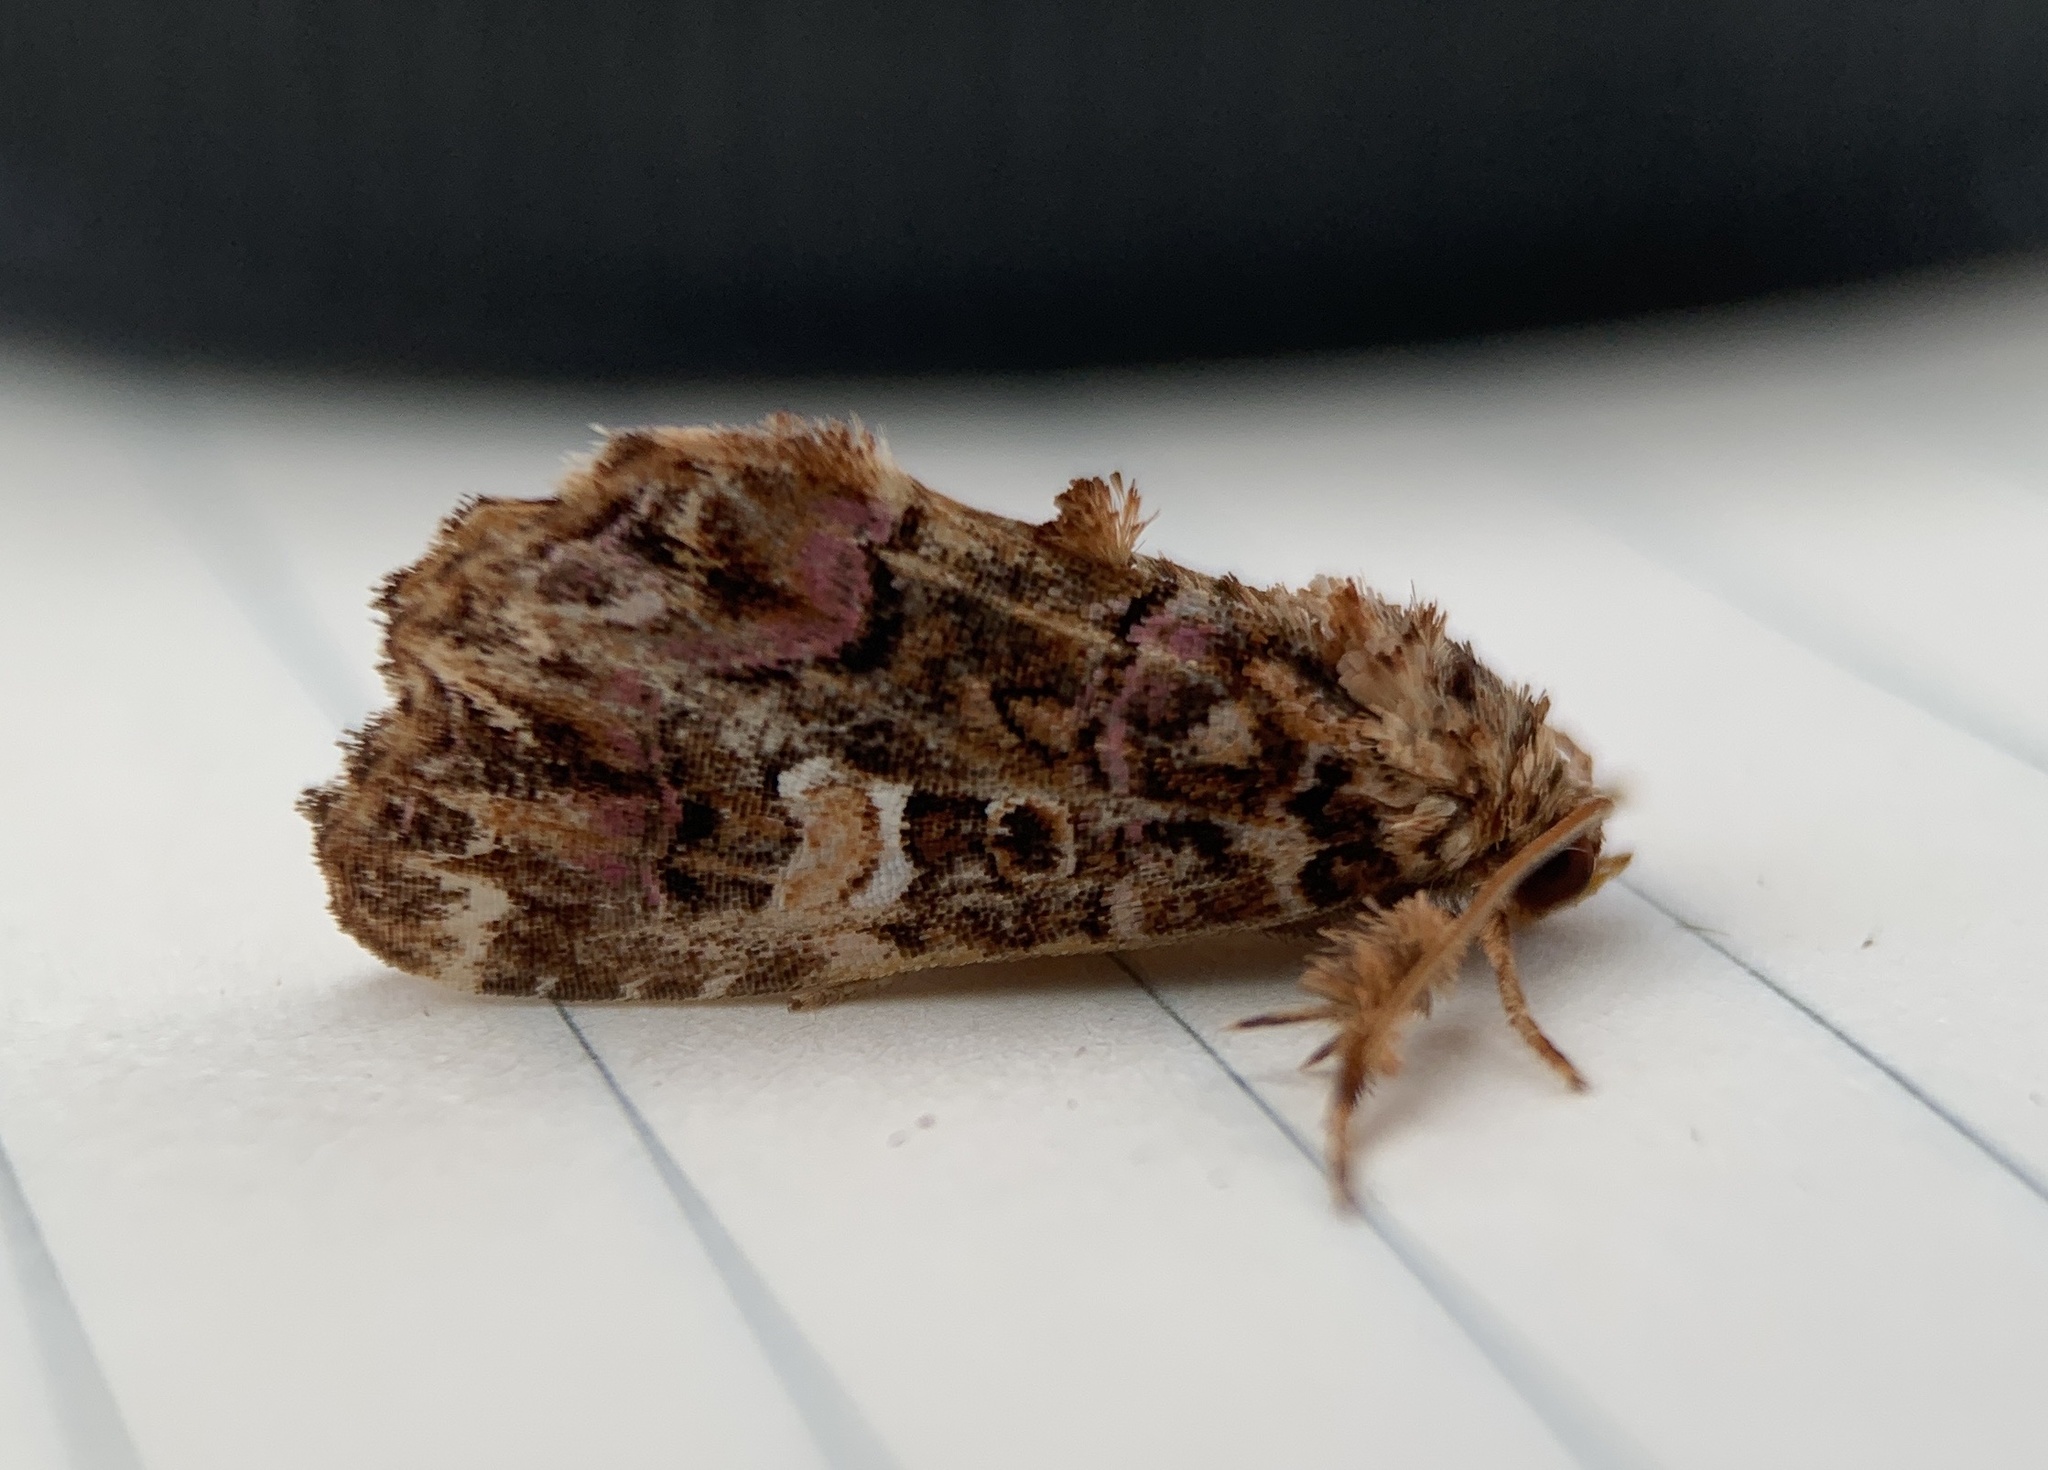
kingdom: Animalia
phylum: Arthropoda
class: Insecta
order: Lepidoptera
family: Noctuidae
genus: Callopistria
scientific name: Callopistria mollissima
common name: Pink-shaded fern moth
